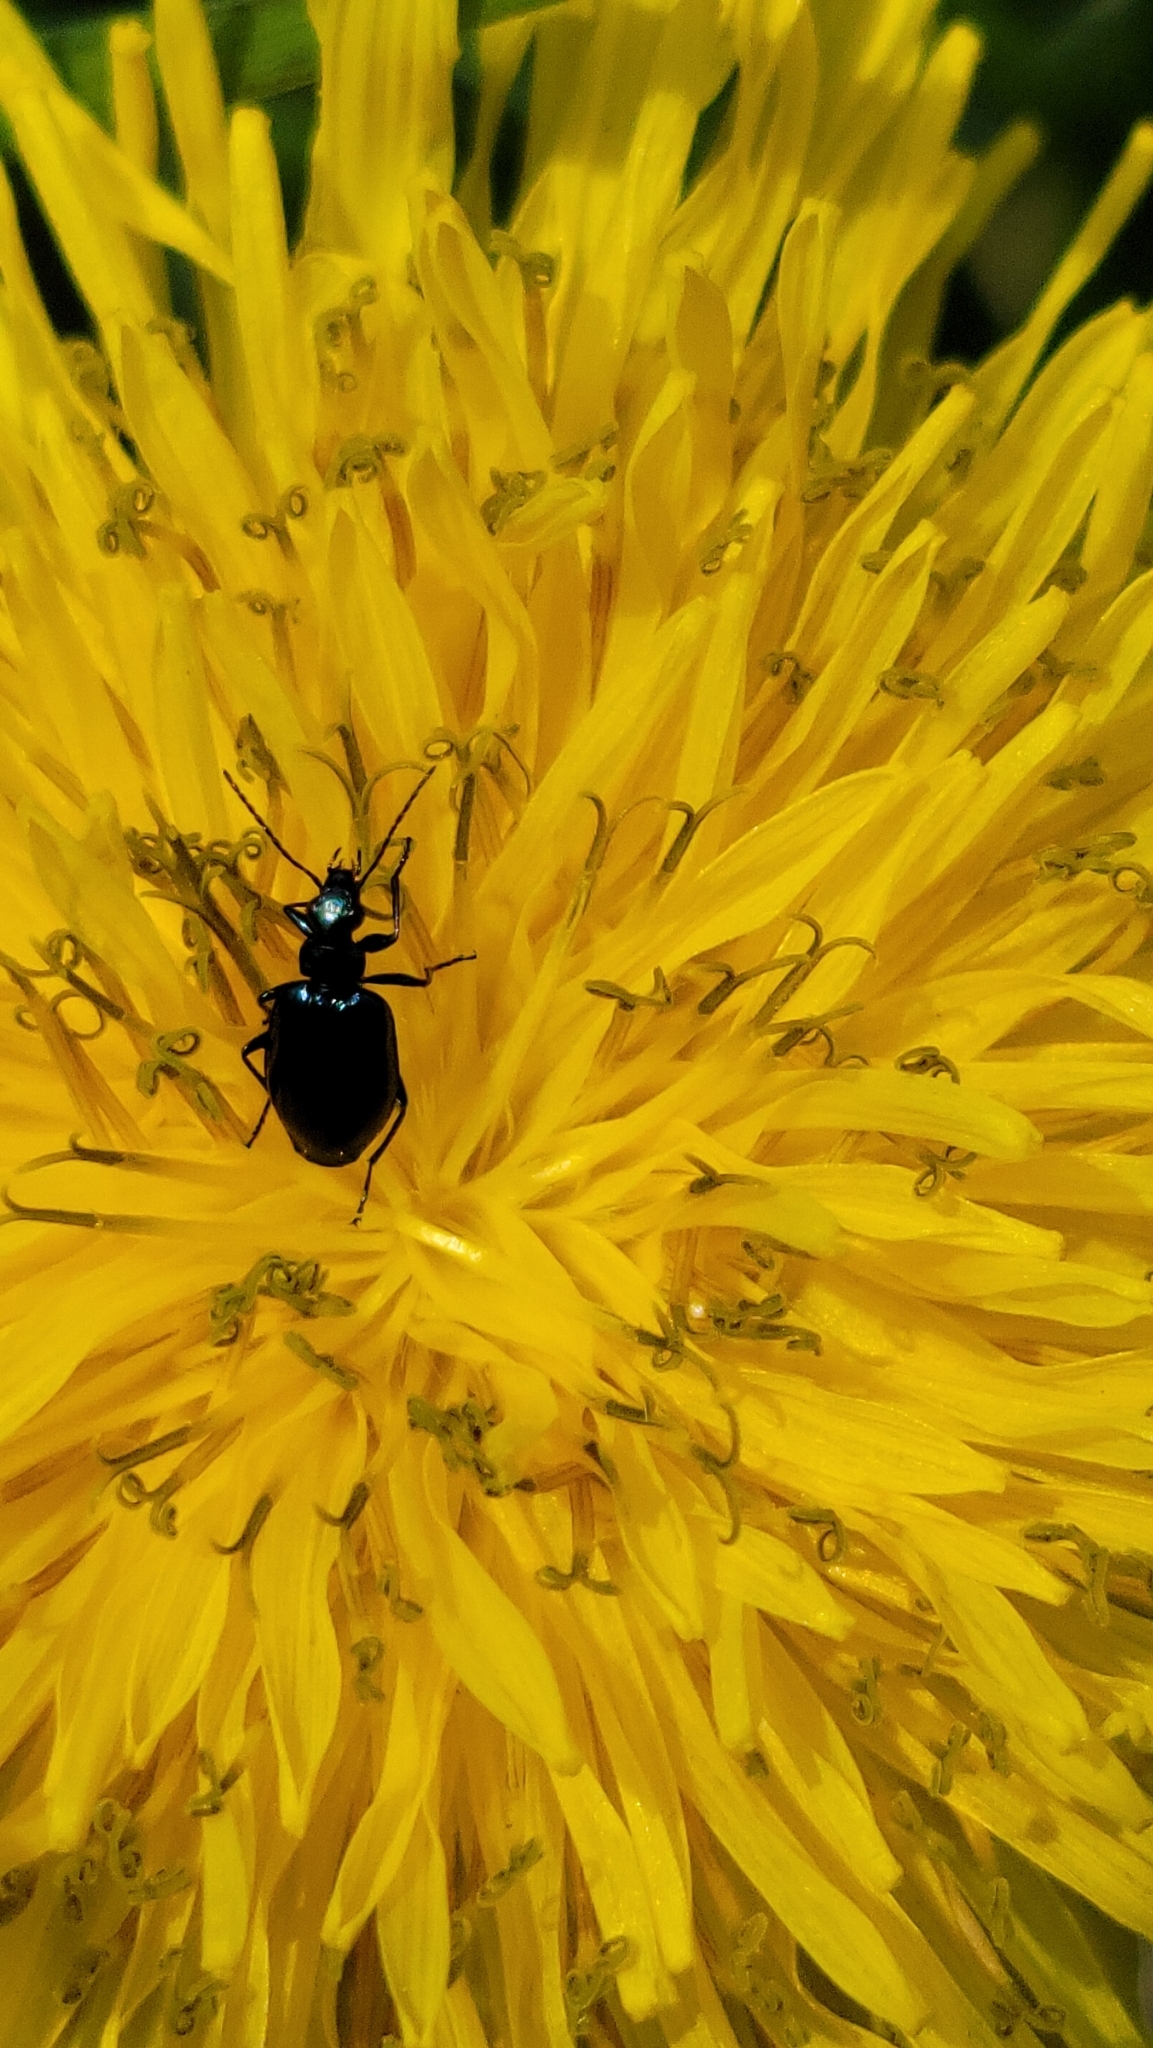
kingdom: Animalia
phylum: Arthropoda
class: Insecta
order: Coleoptera
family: Carabidae
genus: Lebia
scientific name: Lebia viridis
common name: Flower lebia beetle
